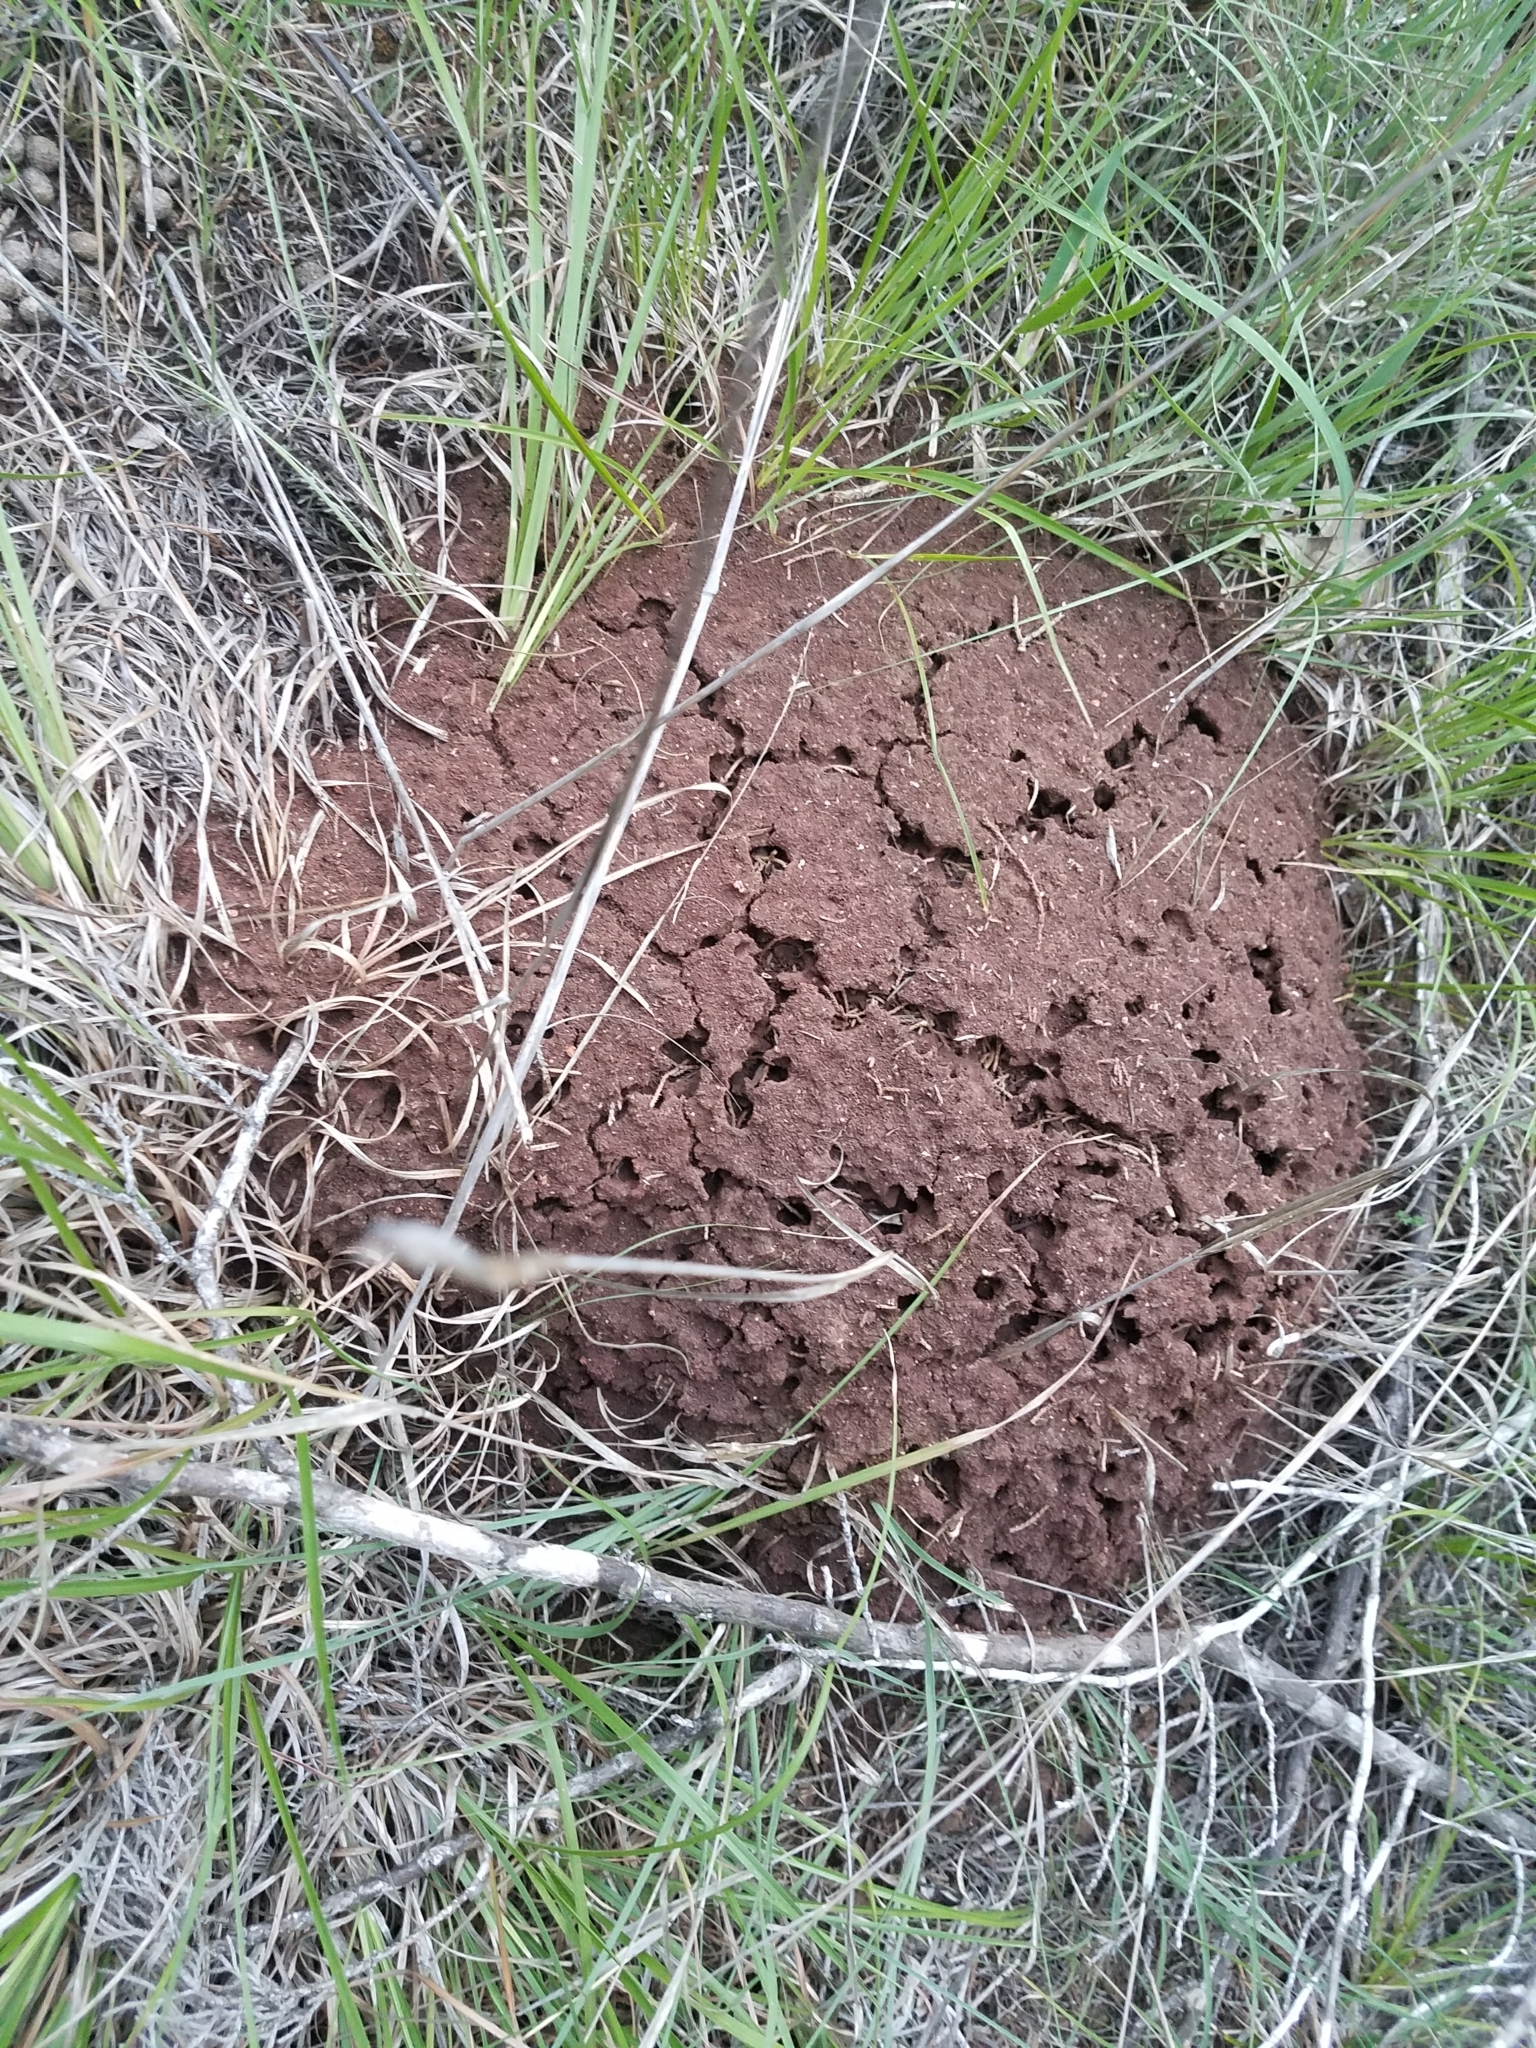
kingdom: Animalia
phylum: Arthropoda
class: Insecta
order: Hymenoptera
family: Formicidae
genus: Solenopsis
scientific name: Solenopsis invicta
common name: Red imported fire ant
